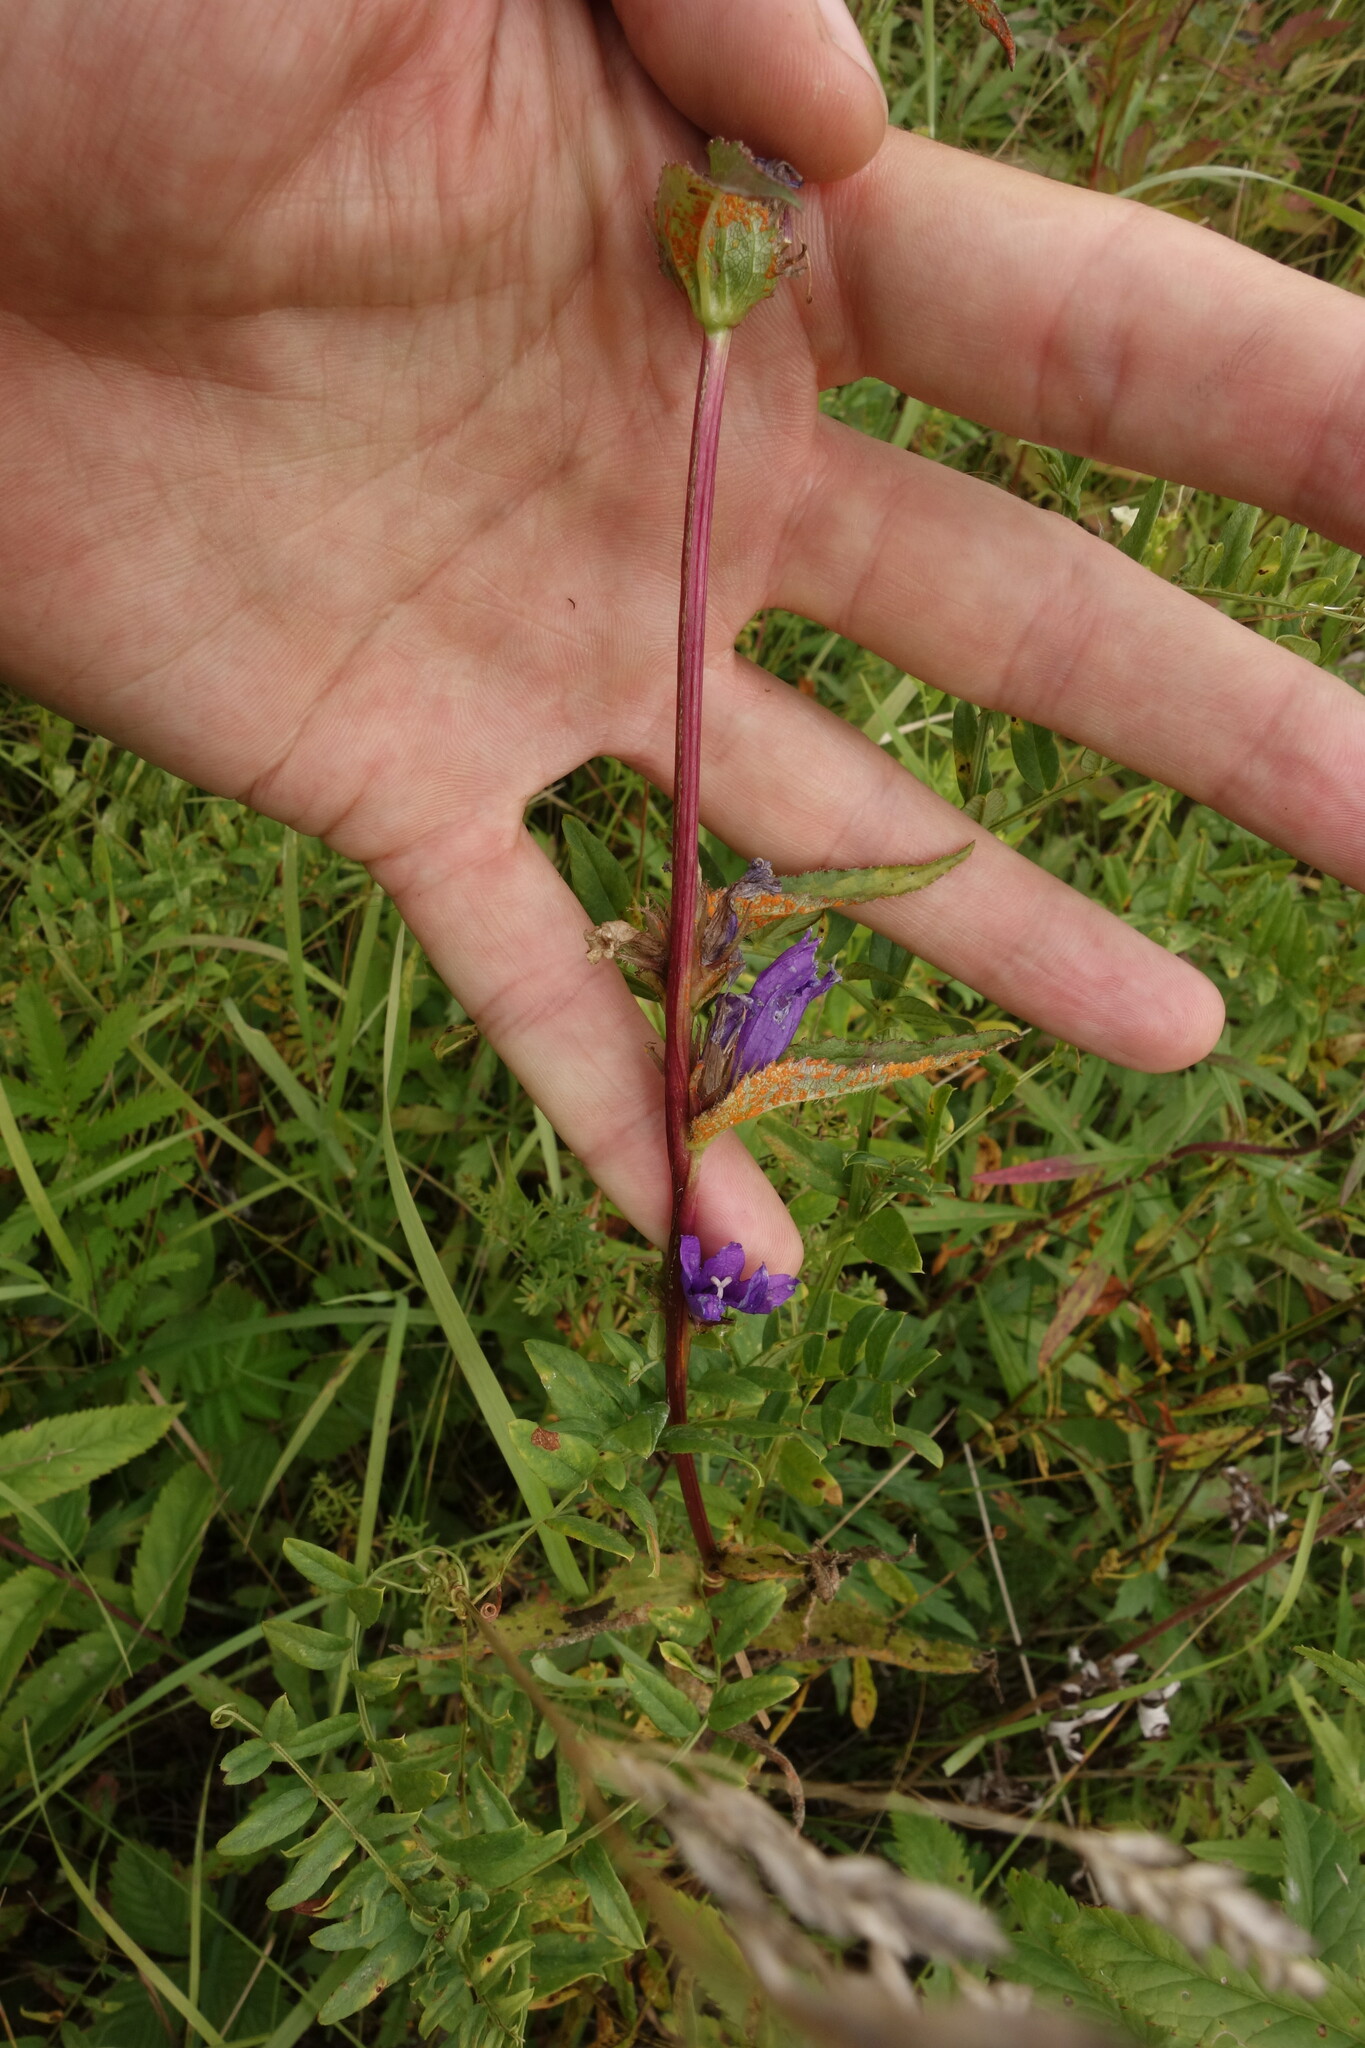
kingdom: Plantae
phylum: Tracheophyta
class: Magnoliopsida
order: Asterales
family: Campanulaceae
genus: Campanula
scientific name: Campanula glomerata
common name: Clustered bellflower
